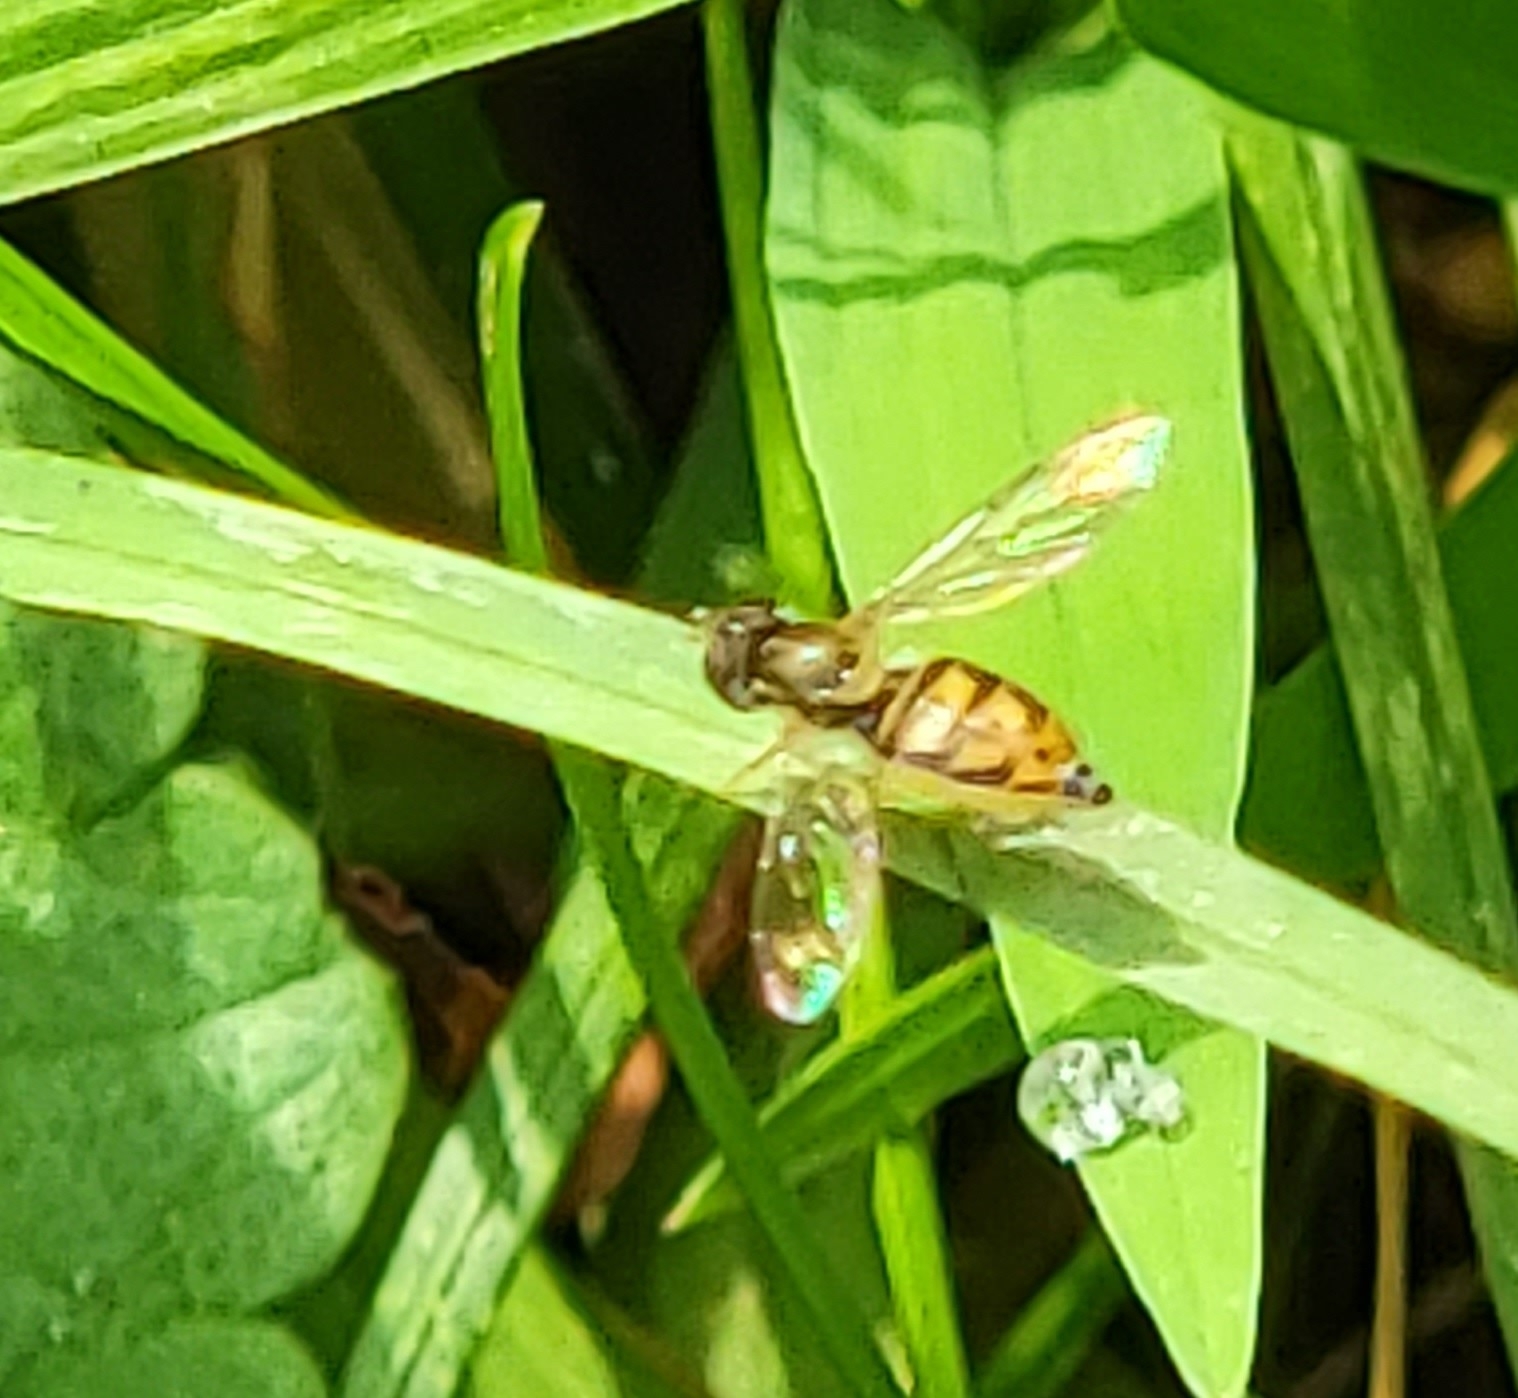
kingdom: Animalia
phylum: Arthropoda
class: Insecta
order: Diptera
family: Syrphidae
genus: Toxomerus
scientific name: Toxomerus marginatus
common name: Syrphid fly
